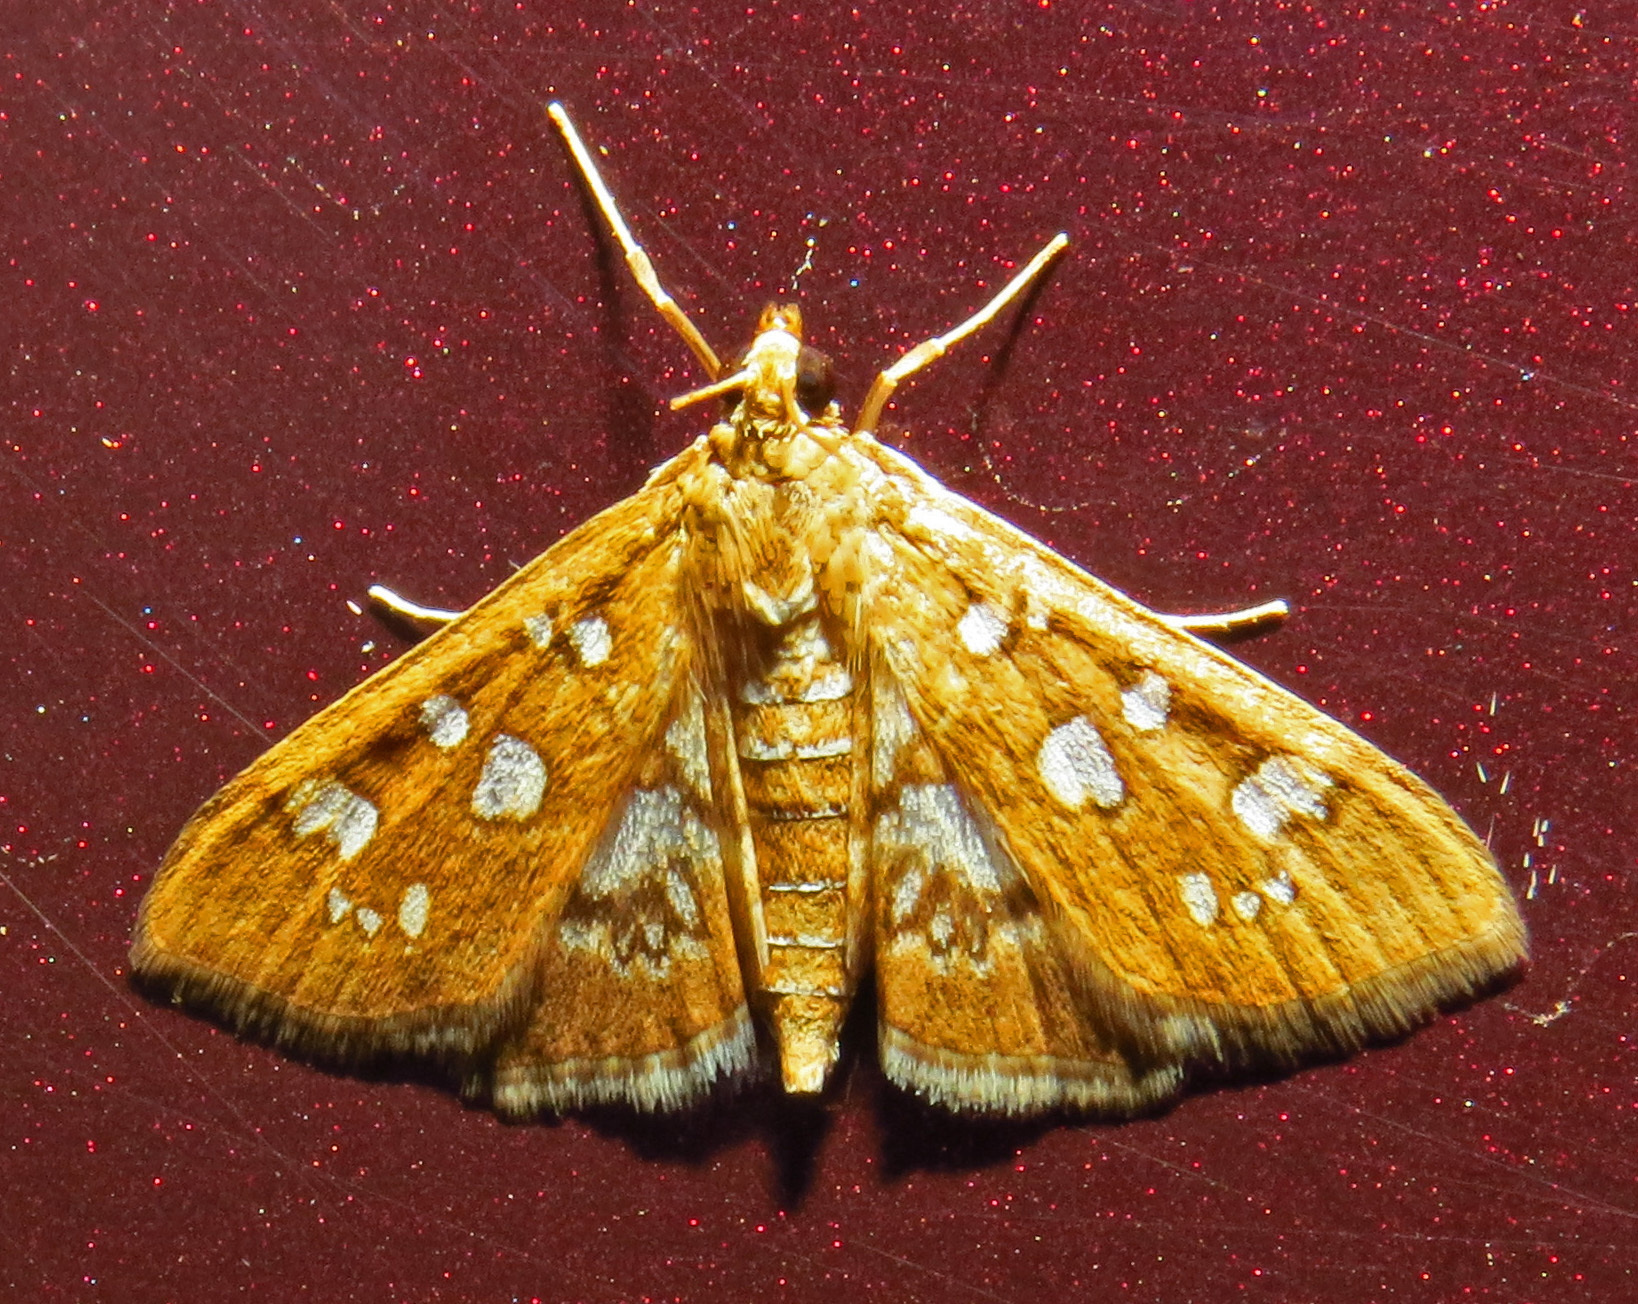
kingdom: Animalia
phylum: Arthropoda
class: Insecta
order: Lepidoptera
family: Crambidae
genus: Samea
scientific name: Samea baccatalis
